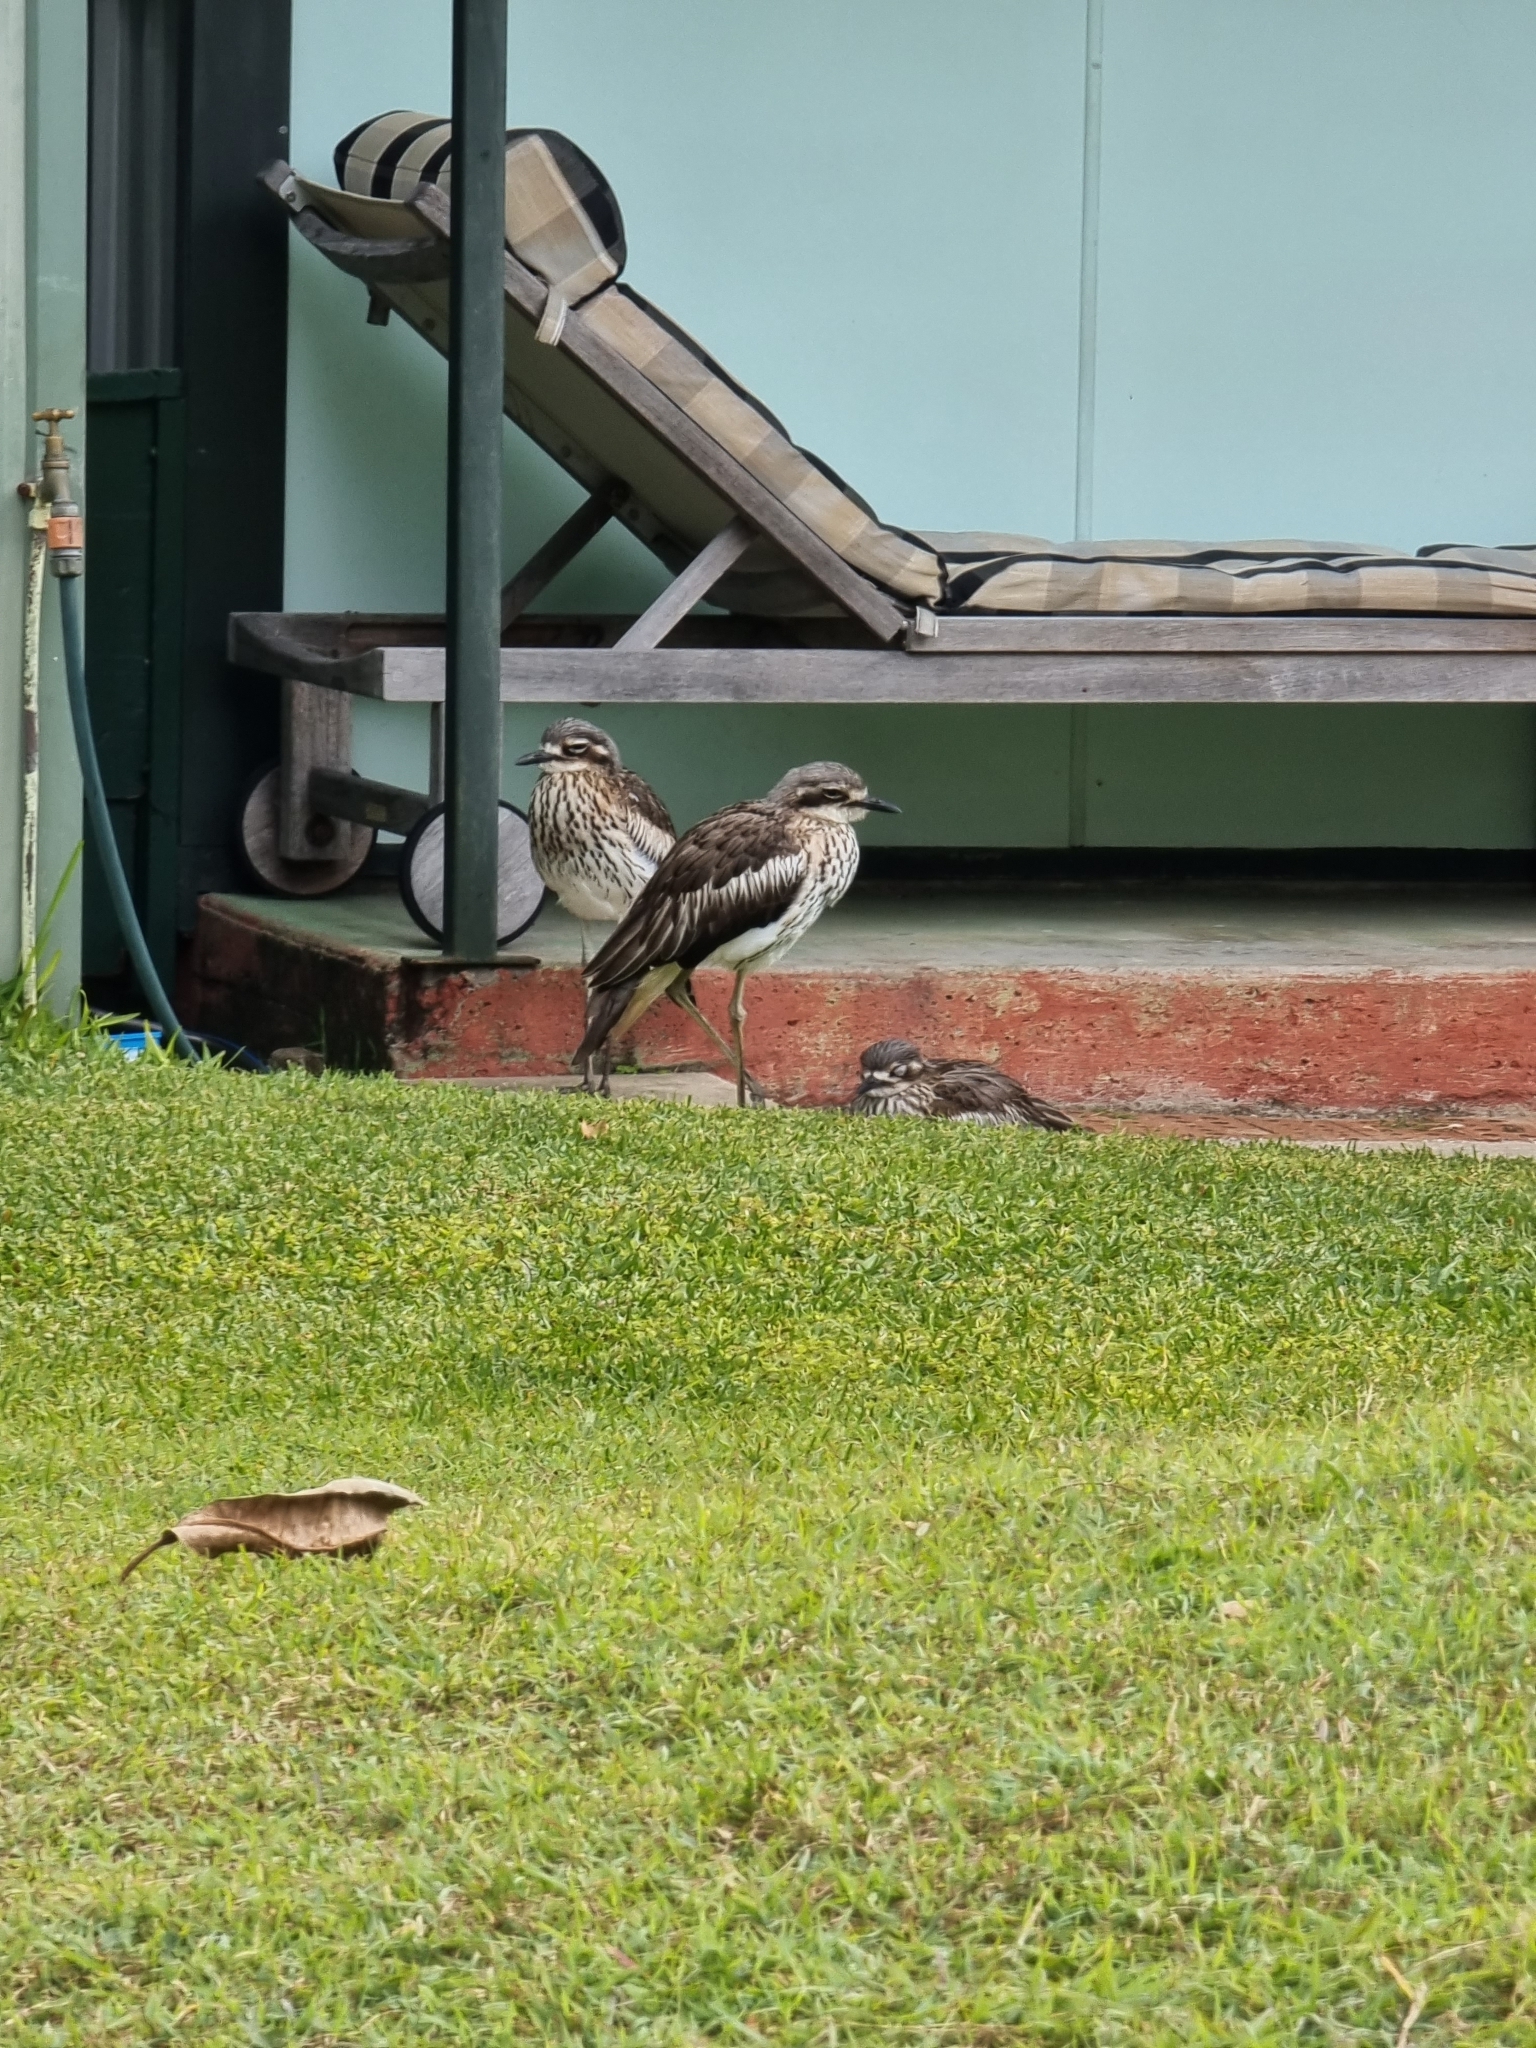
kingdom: Animalia
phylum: Chordata
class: Aves
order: Charadriiformes
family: Burhinidae
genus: Burhinus
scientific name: Burhinus grallarius
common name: Bush stone-curlew
